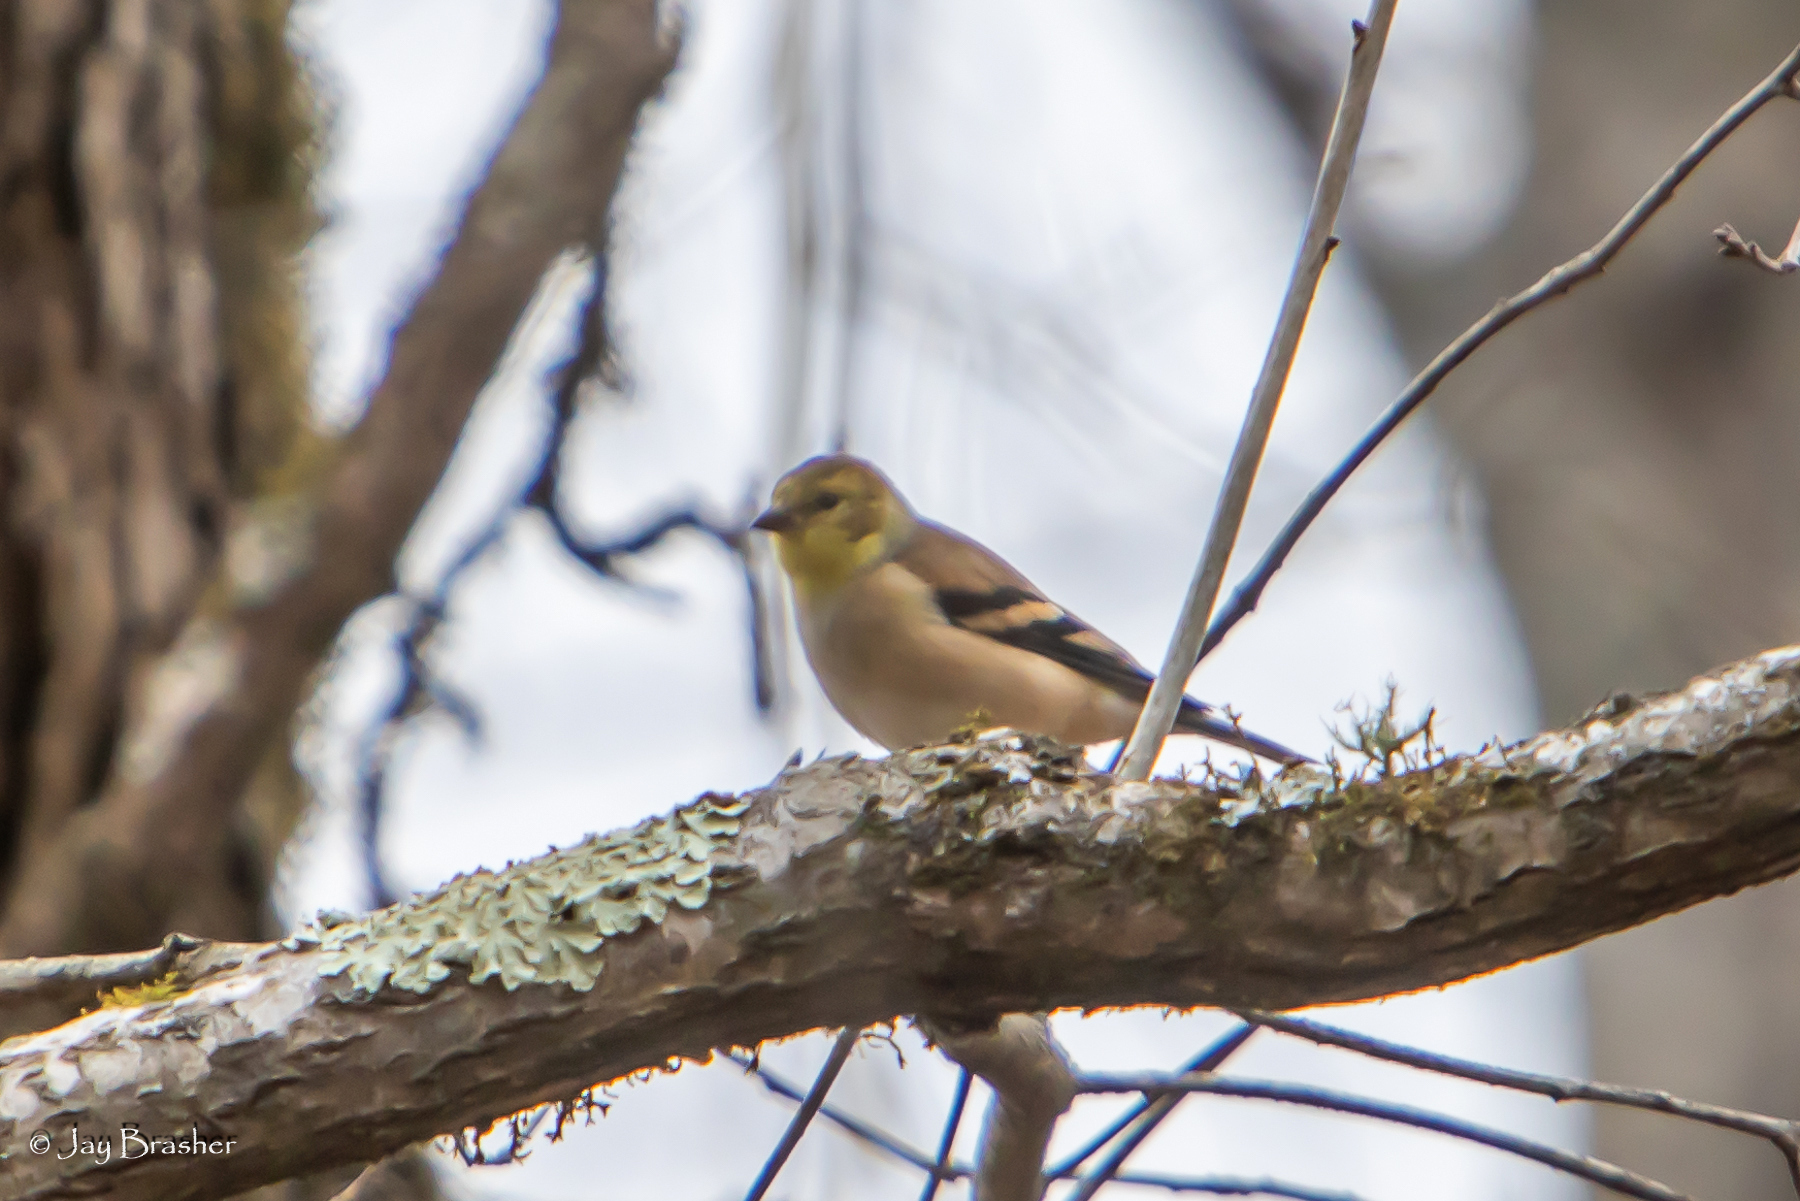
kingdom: Animalia
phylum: Chordata
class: Aves
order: Passeriformes
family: Fringillidae
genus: Spinus
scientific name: Spinus tristis
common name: American goldfinch
